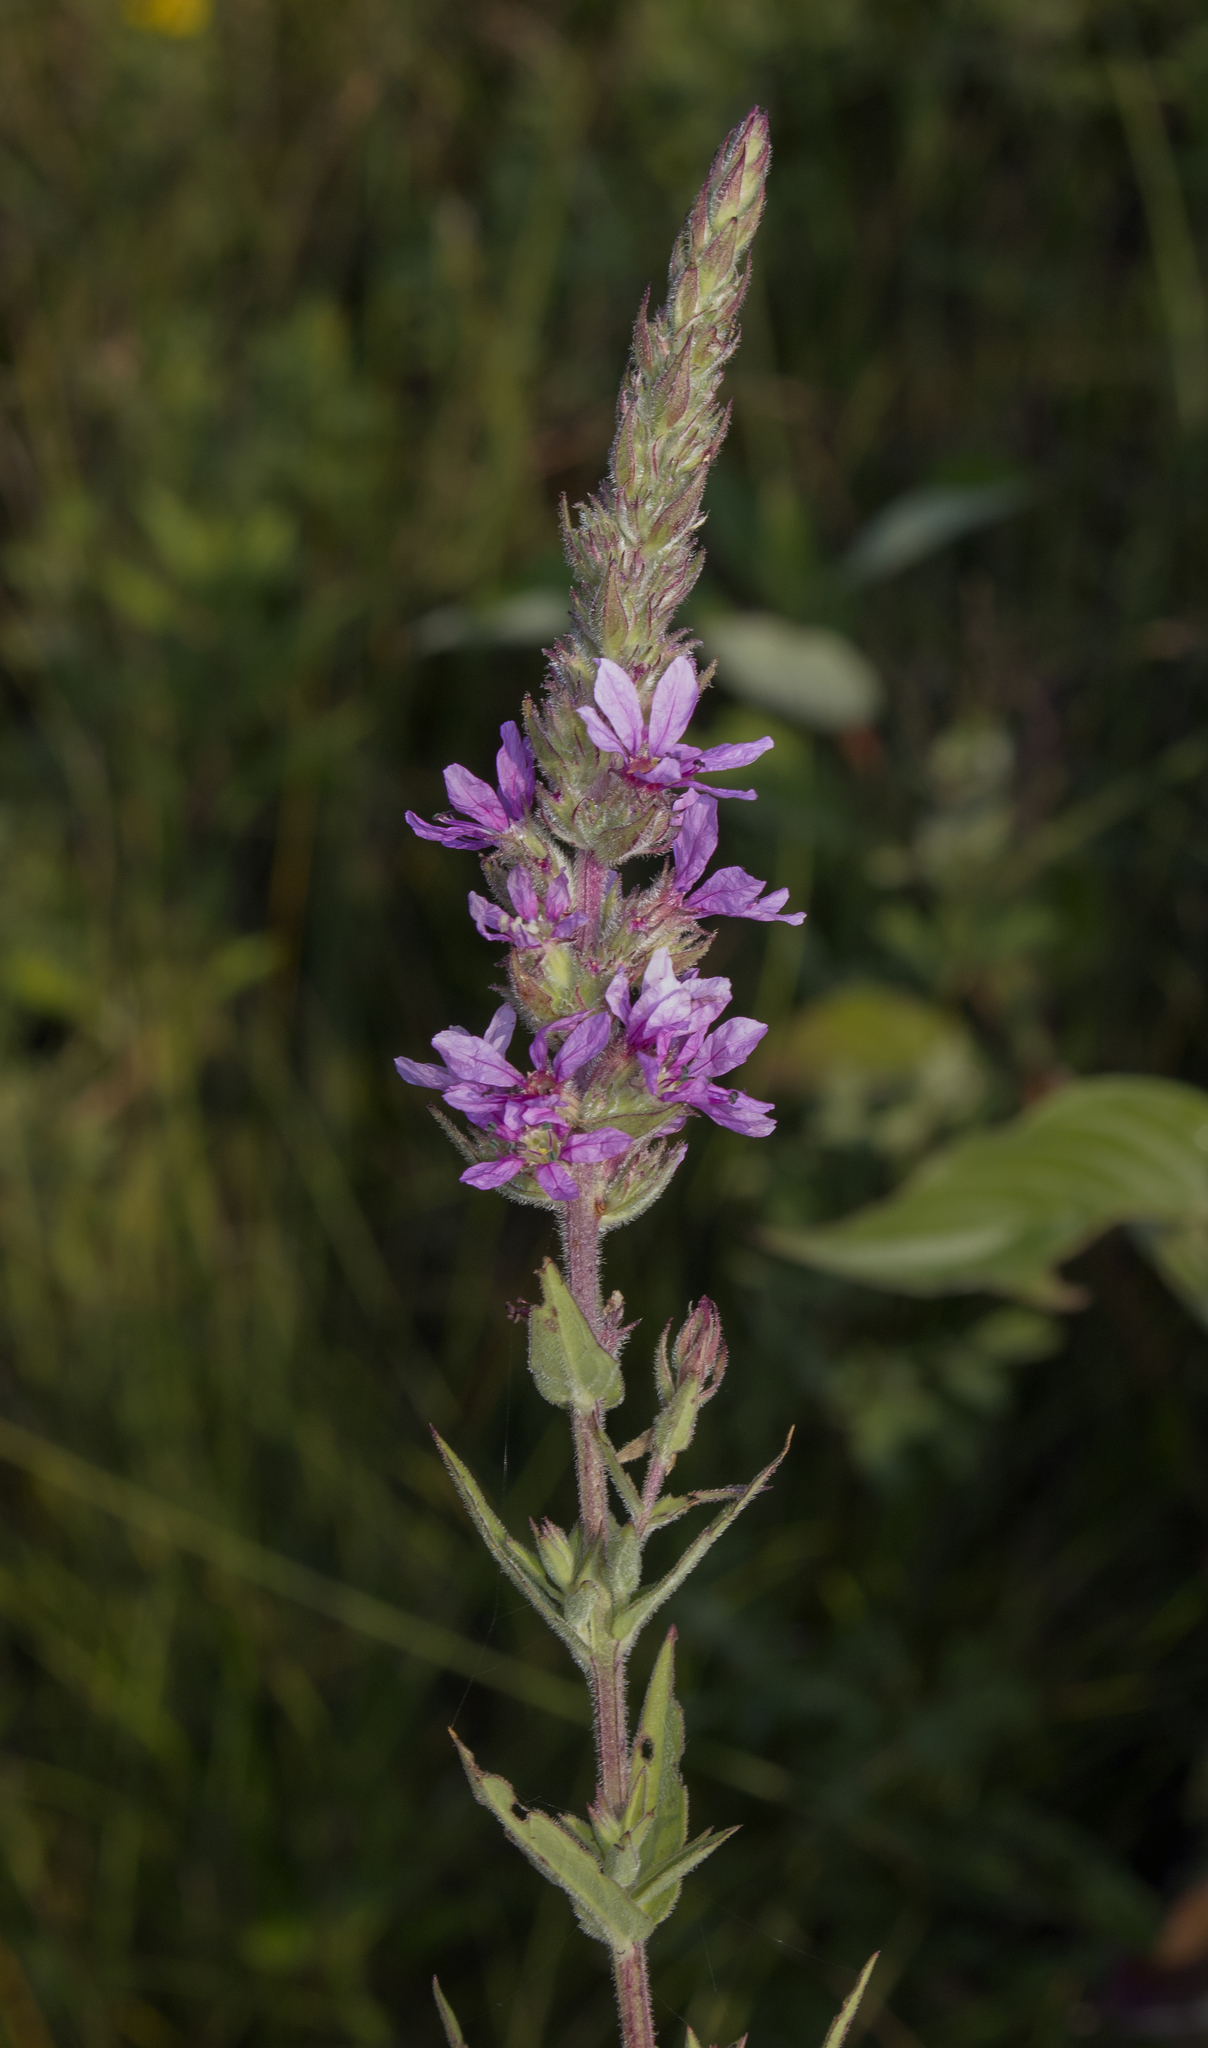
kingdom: Plantae
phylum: Tracheophyta
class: Magnoliopsida
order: Myrtales
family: Lythraceae
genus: Lythrum
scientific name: Lythrum salicaria
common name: Purple loosestrife
